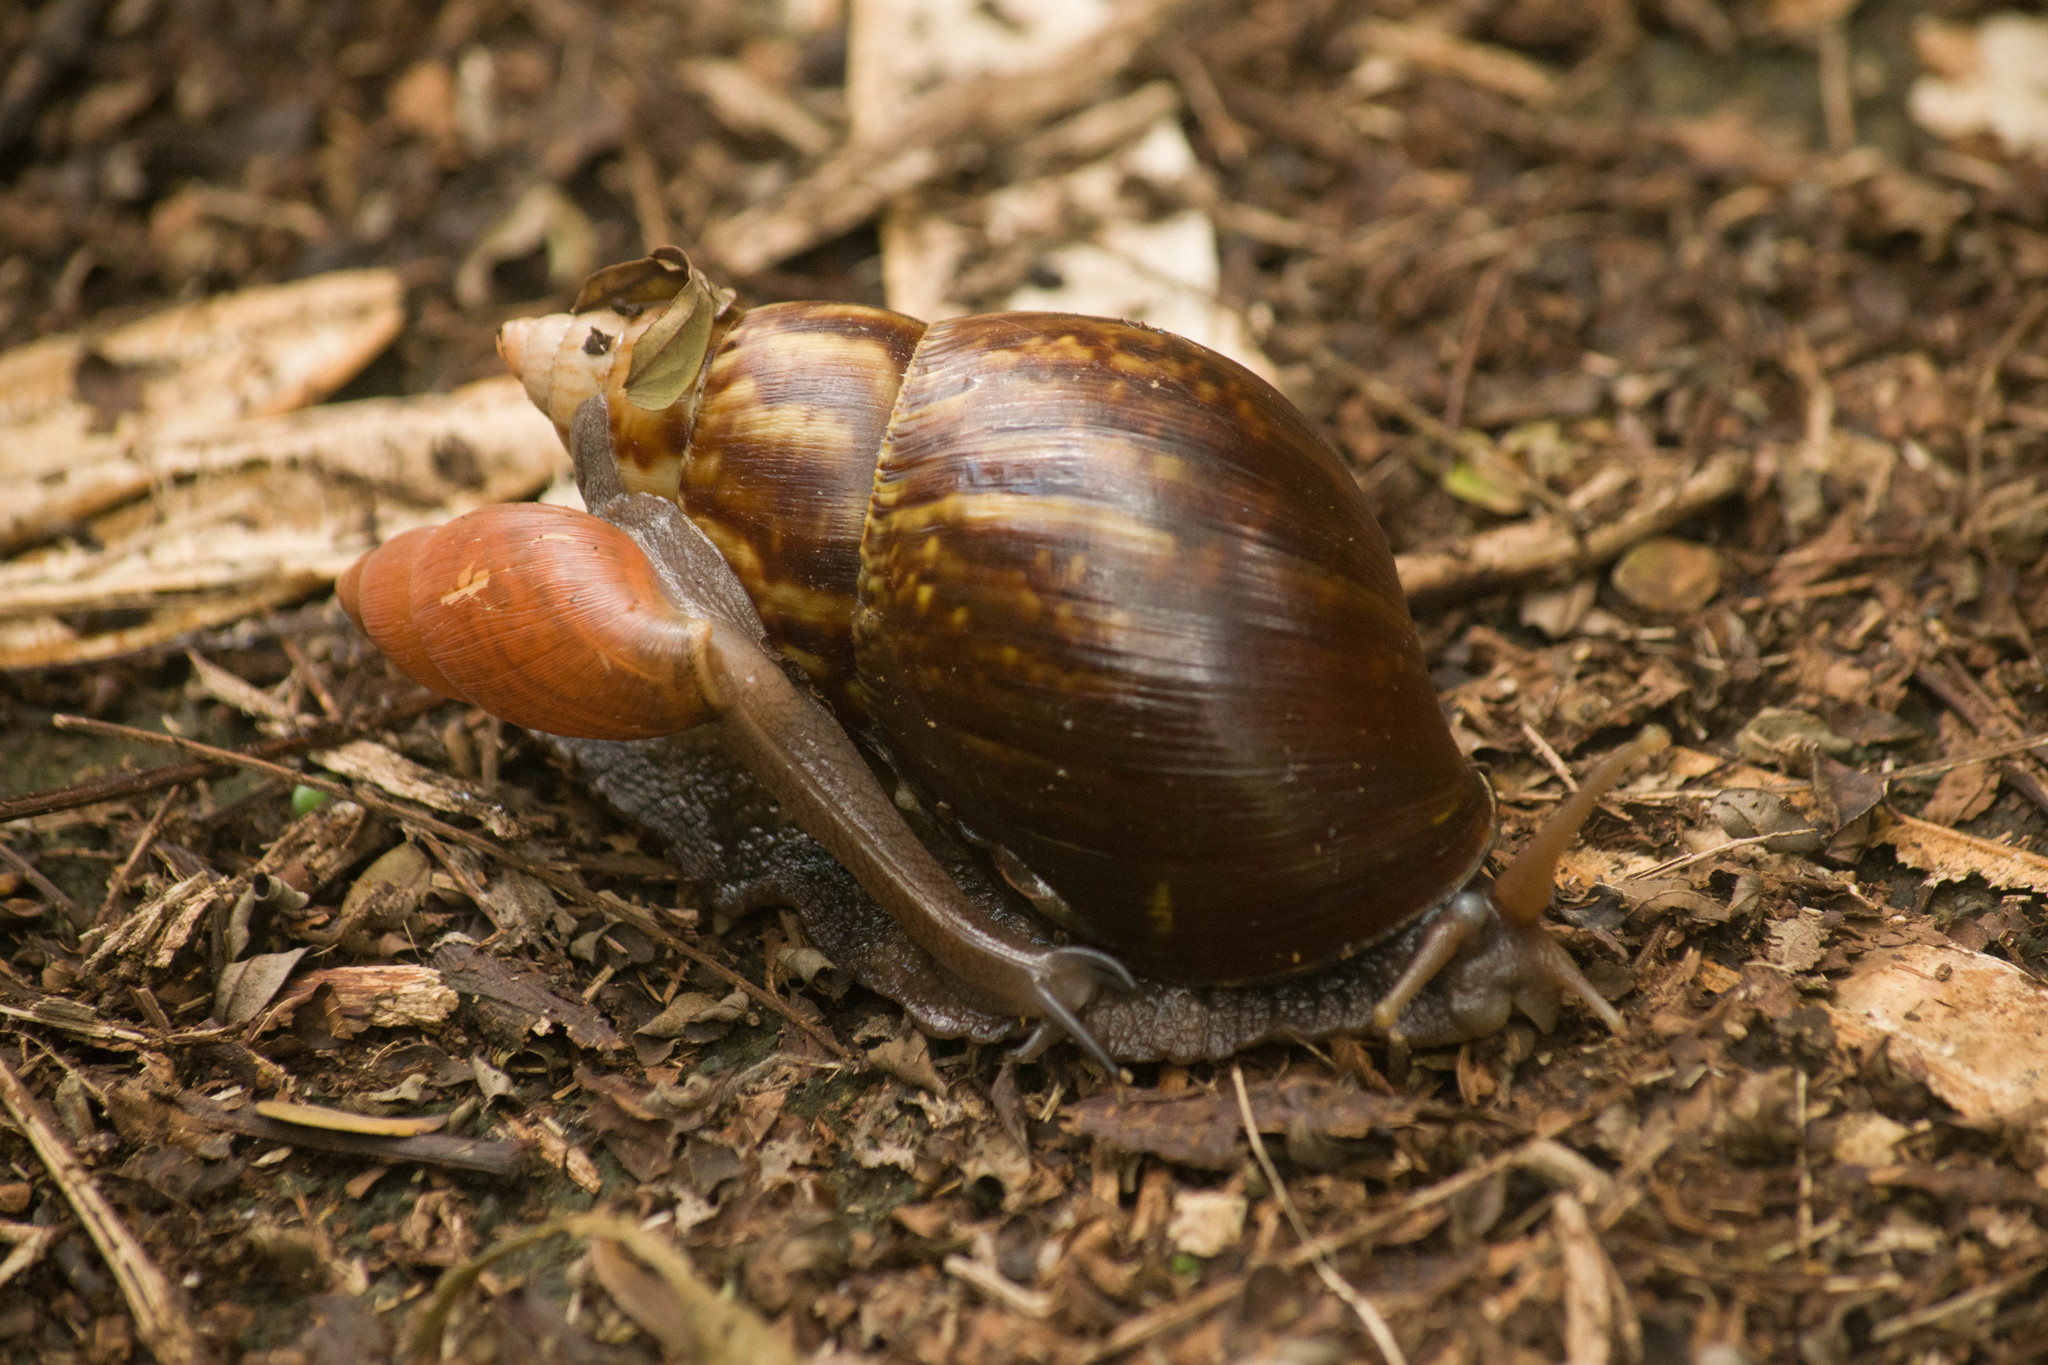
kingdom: Animalia
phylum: Mollusca
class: Gastropoda
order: Stylommatophora
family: Achatinidae
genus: Lissachatina
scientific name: Lissachatina fulica
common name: Giant african snail
